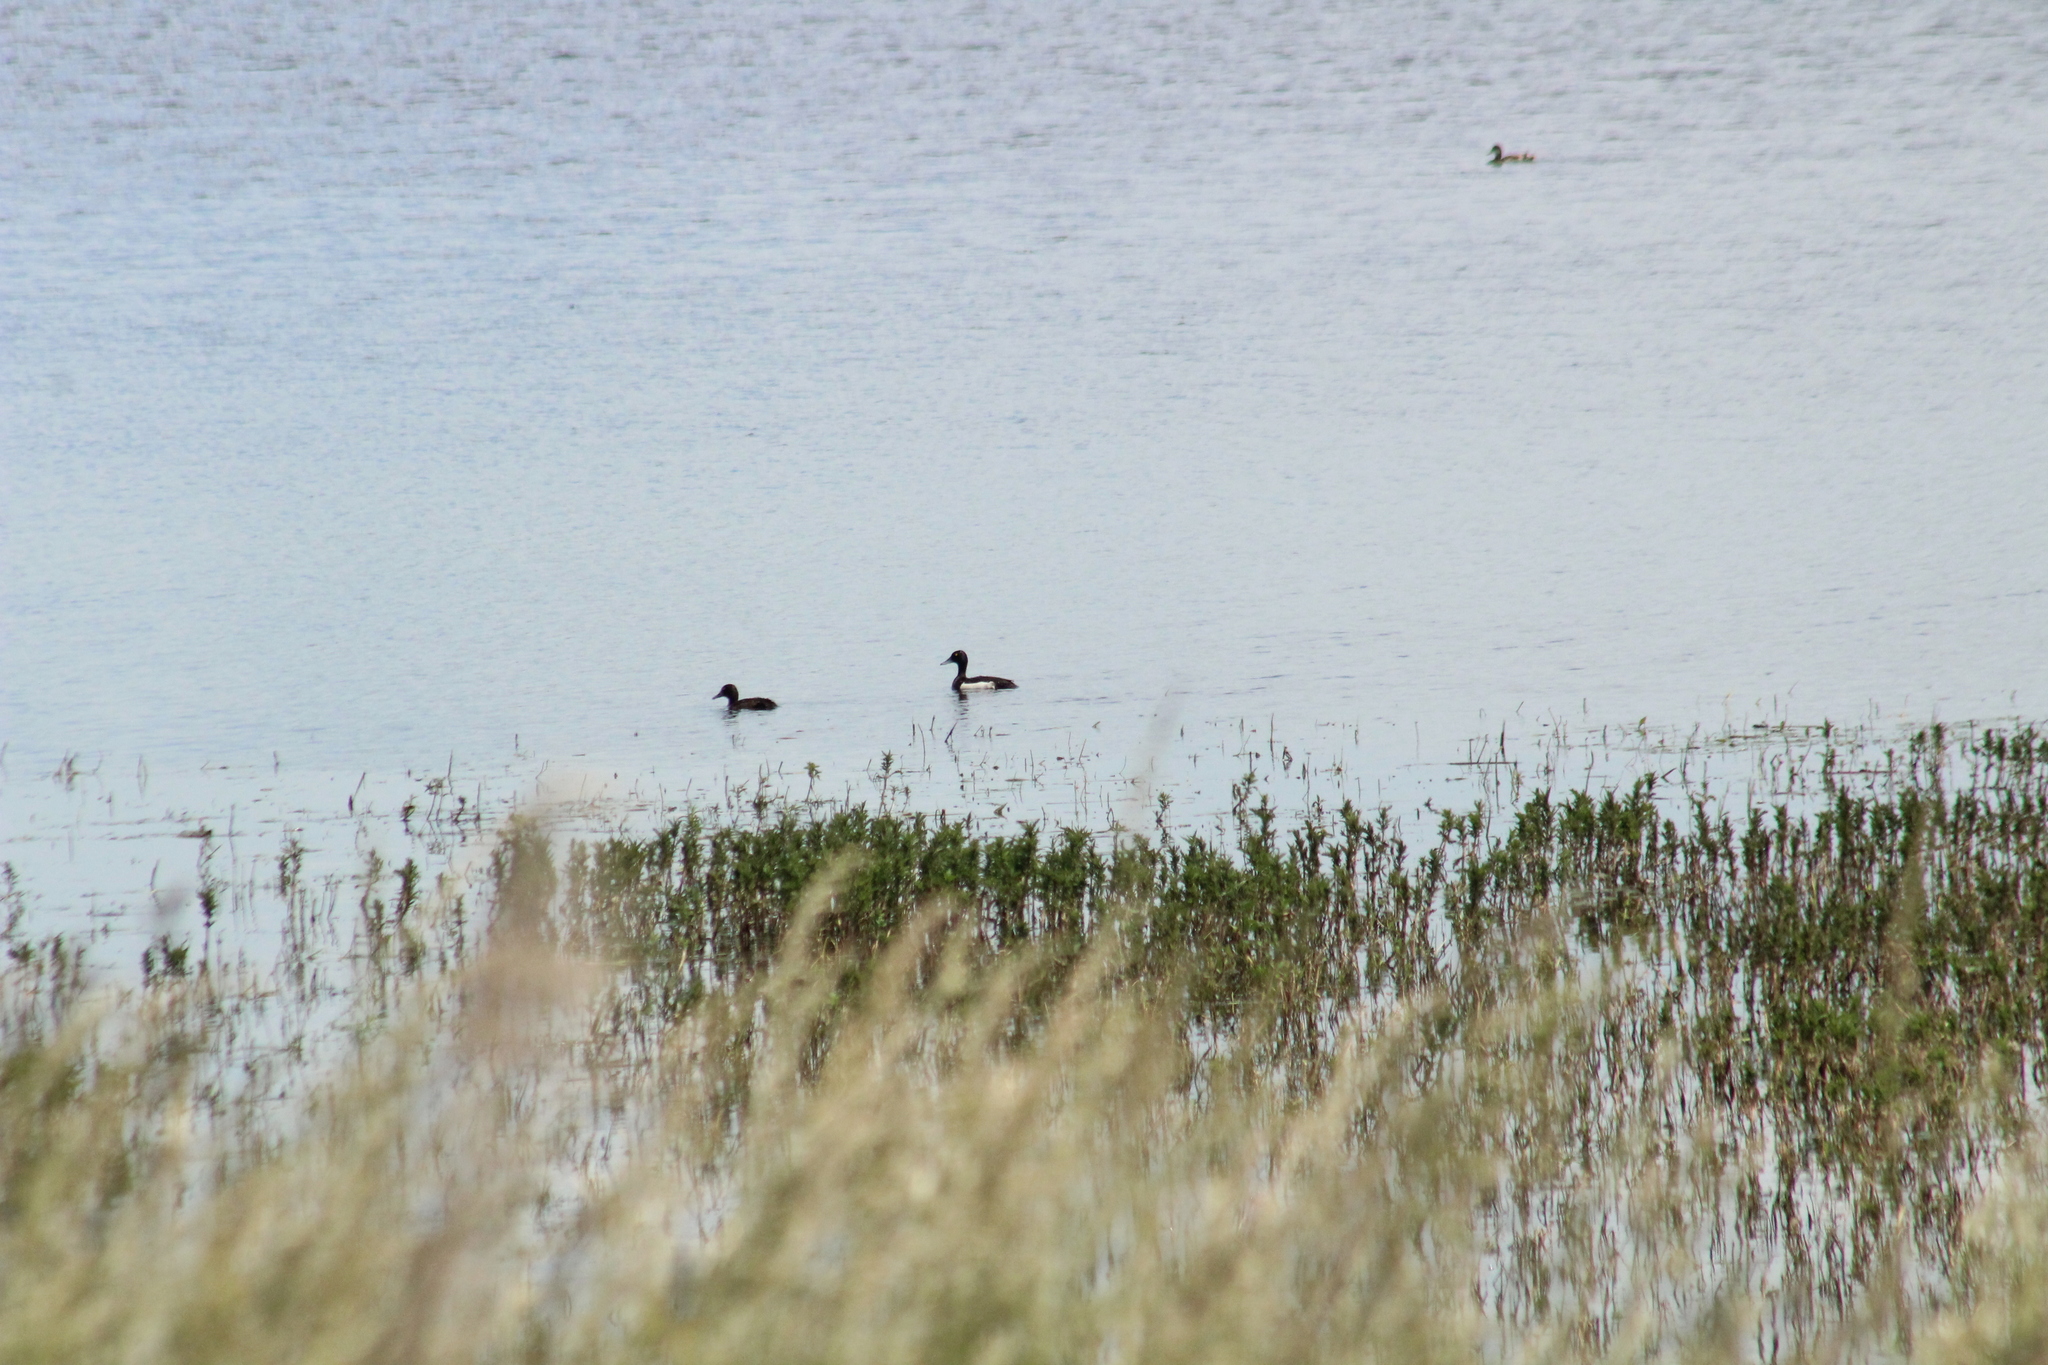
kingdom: Animalia
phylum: Chordata
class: Aves
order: Anseriformes
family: Anatidae
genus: Aythya
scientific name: Aythya fuligula
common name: Tufted duck
